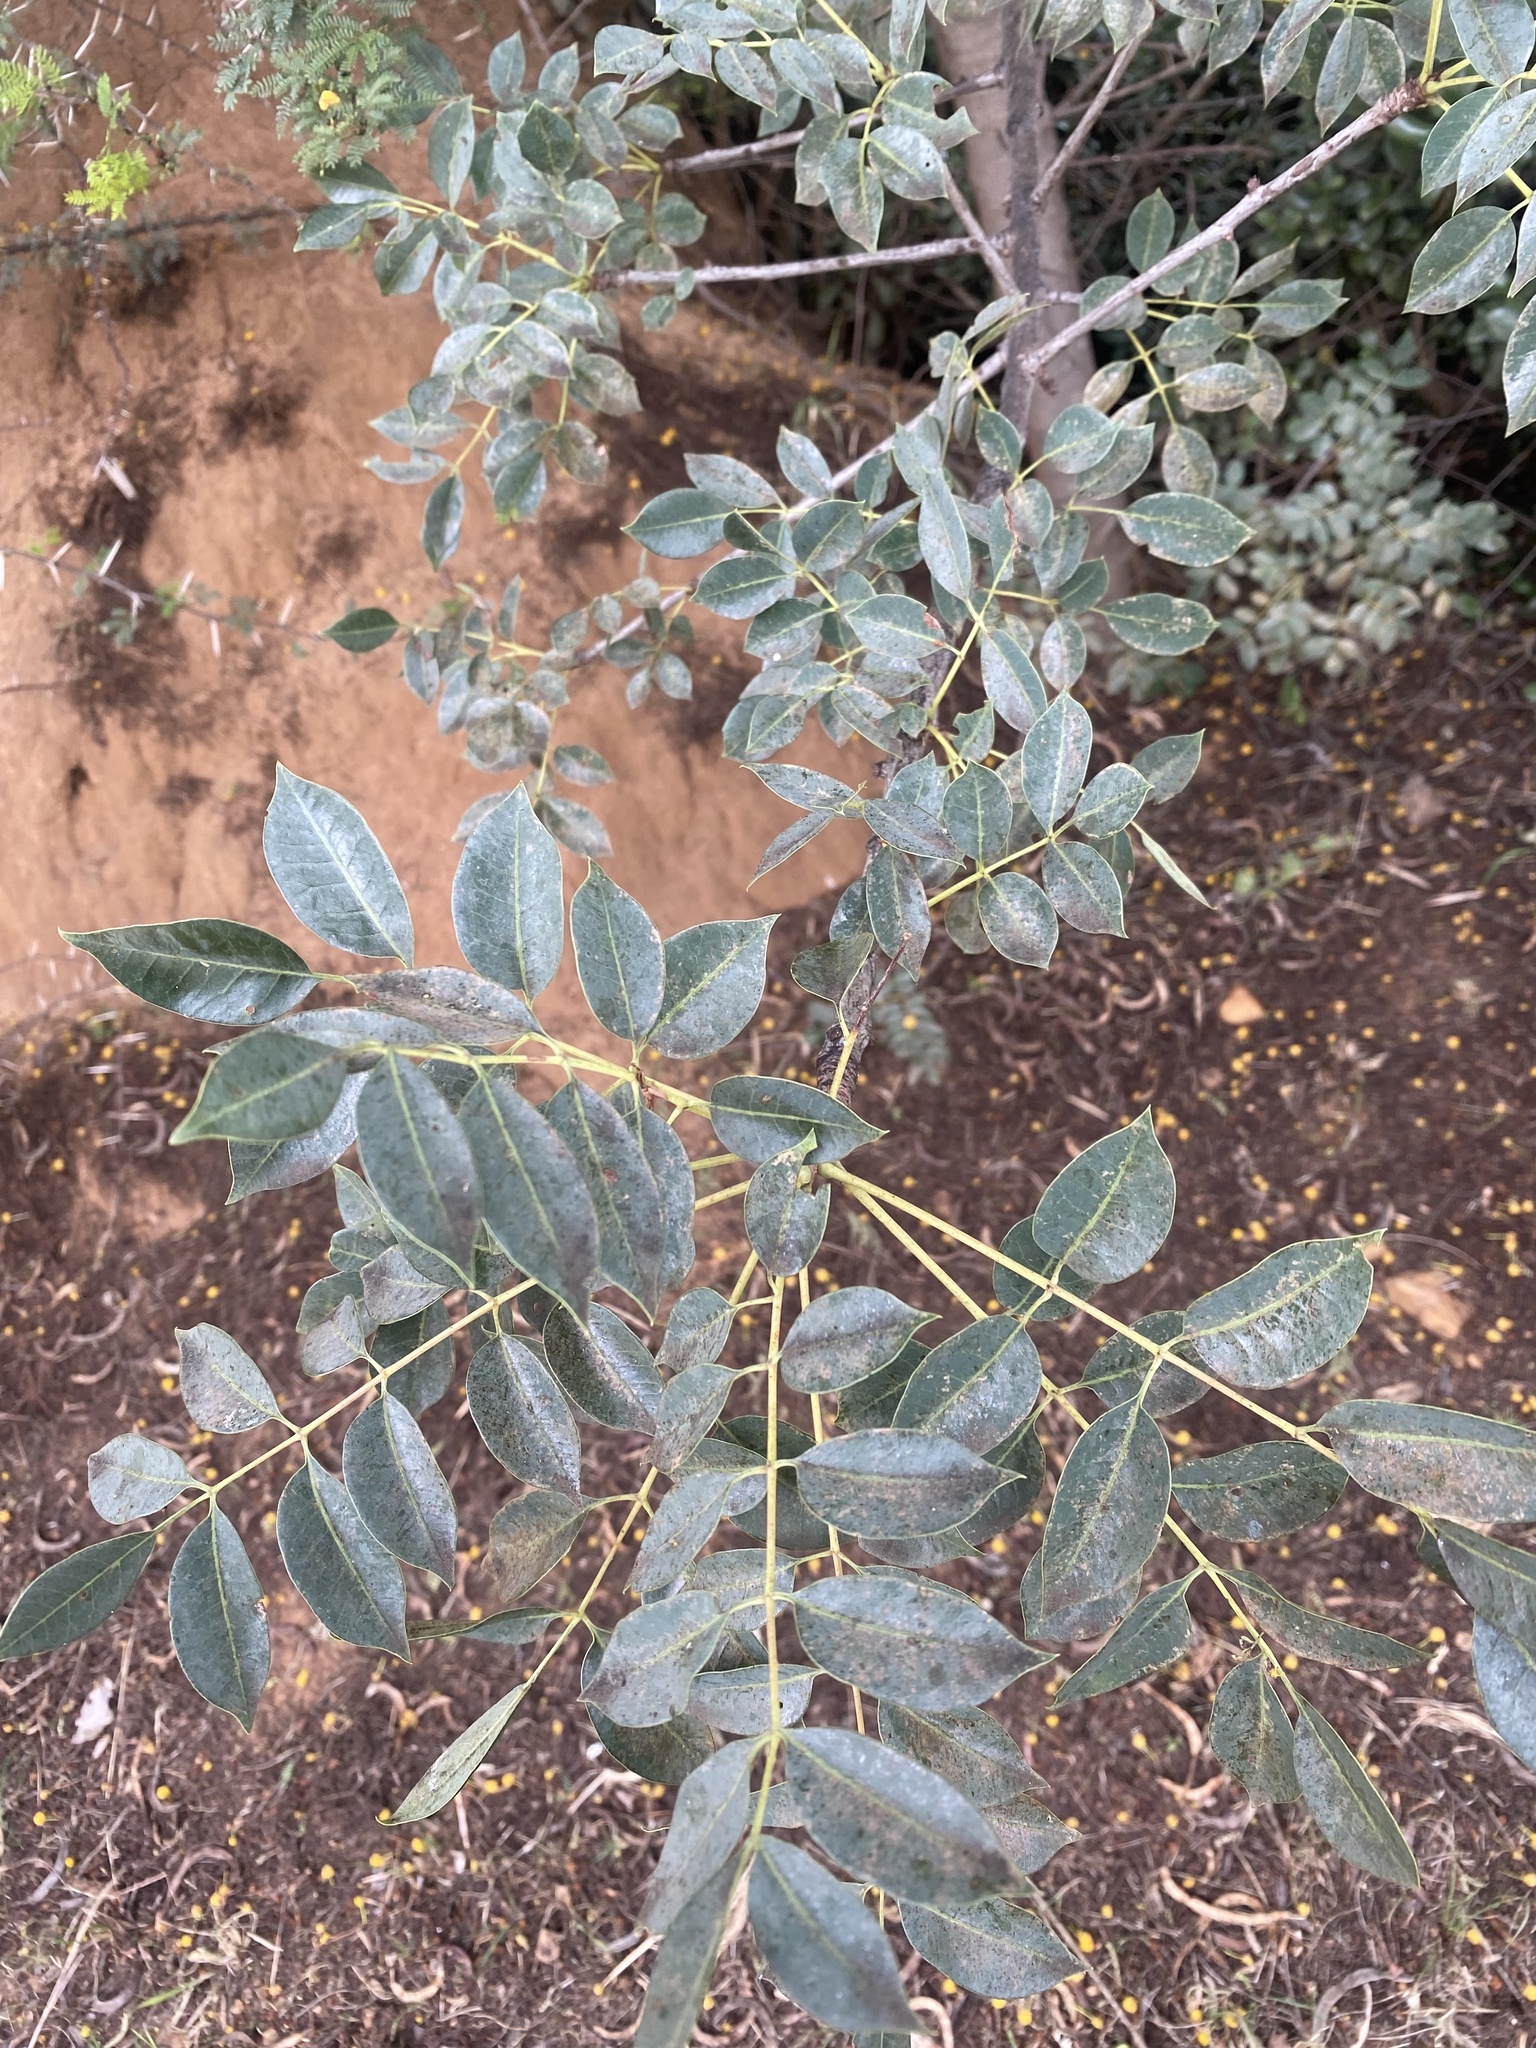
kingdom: Plantae
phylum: Tracheophyta
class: Magnoliopsida
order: Sapindales
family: Anacardiaceae
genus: Sclerocarya
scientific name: Sclerocarya birrea
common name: Marula
